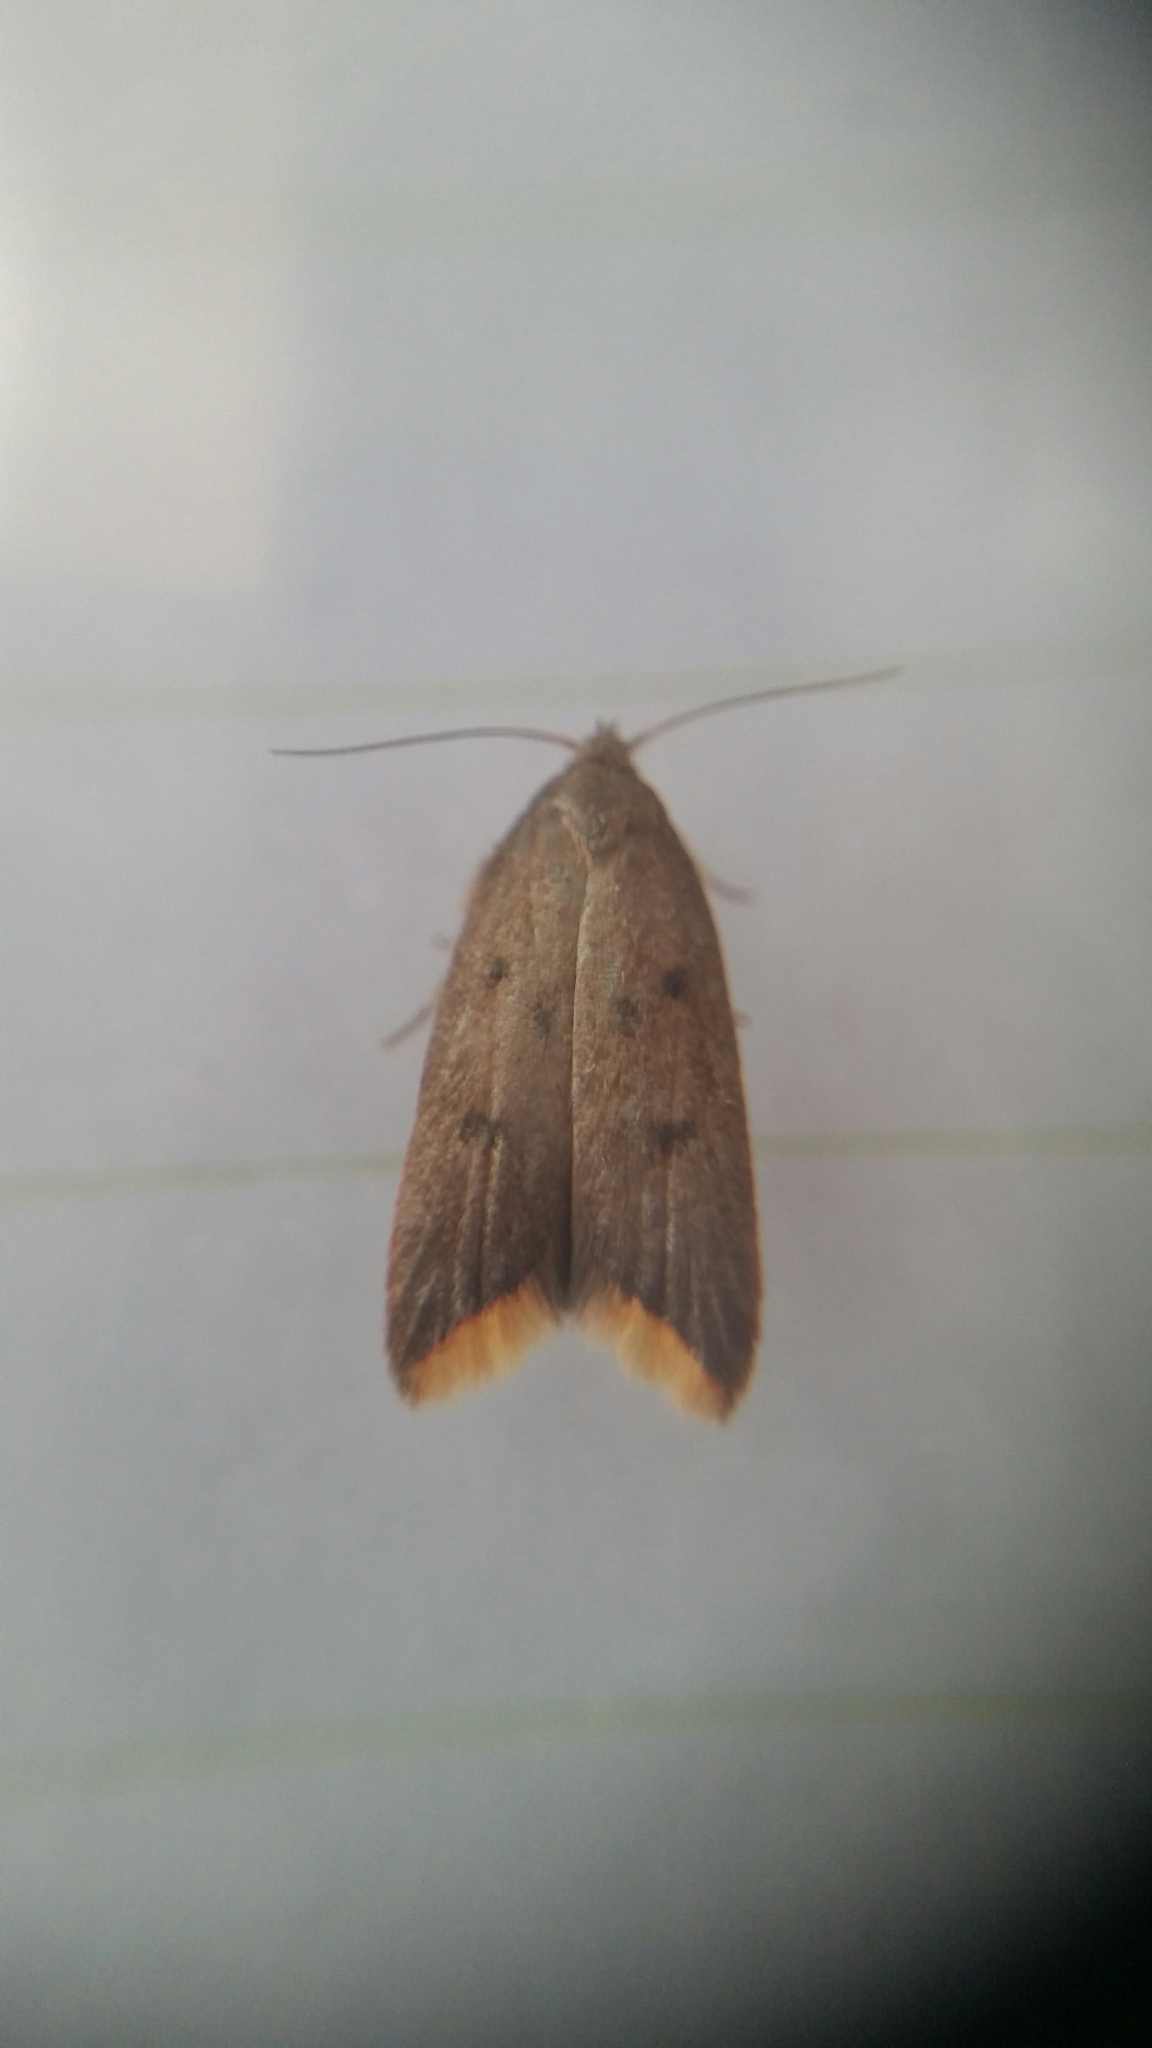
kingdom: Animalia
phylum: Arthropoda
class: Insecta
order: Lepidoptera
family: Oecophoridae
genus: Tachystola
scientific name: Tachystola acroxantha
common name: Ruddy streak
